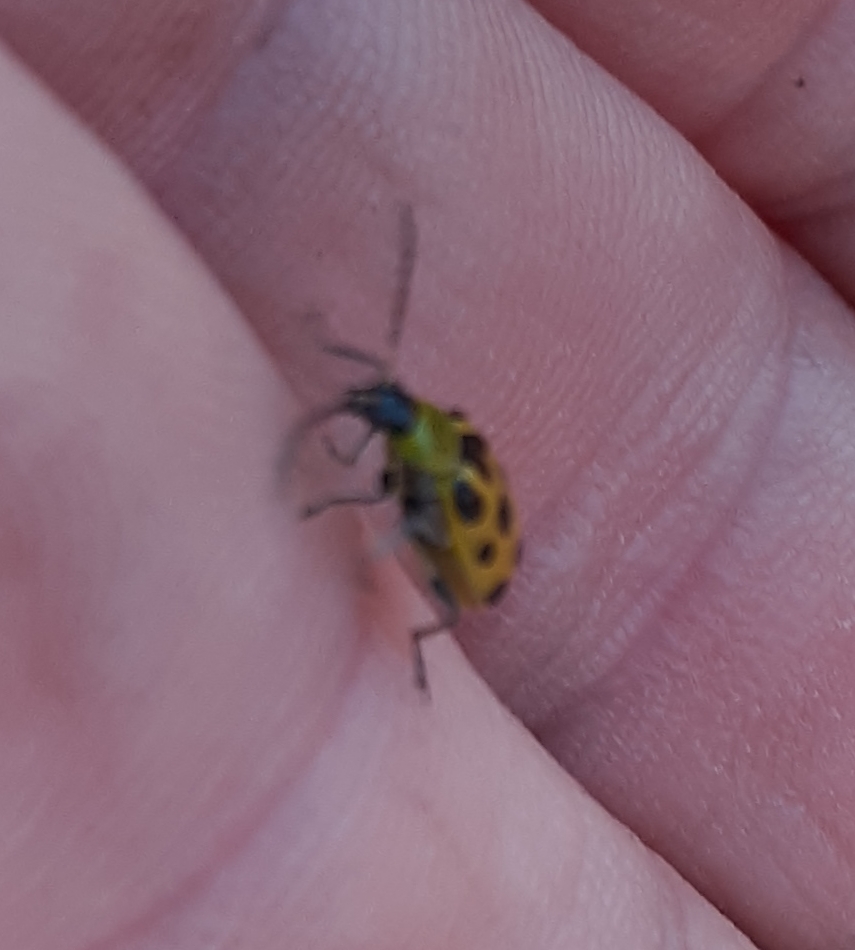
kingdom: Animalia
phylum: Arthropoda
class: Insecta
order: Coleoptera
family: Chrysomelidae
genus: Diabrotica
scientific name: Diabrotica undecimpunctata
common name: Spotted cucumber beetle
